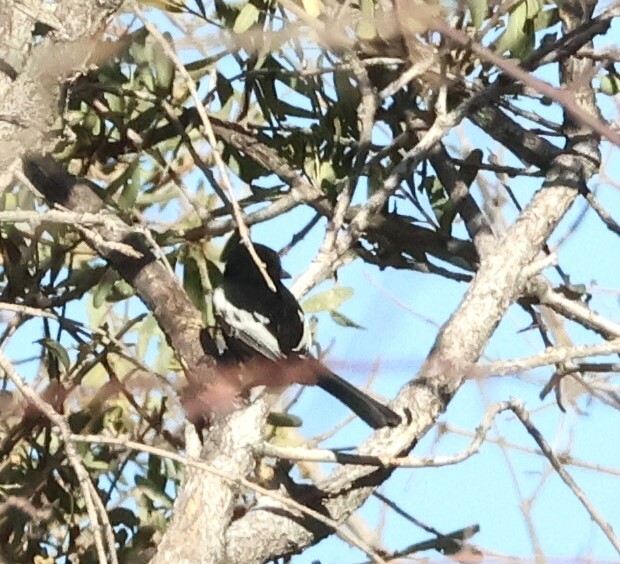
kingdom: Animalia
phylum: Chordata
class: Aves
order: Passeriformes
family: Paridae
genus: Parus
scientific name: Parus carpi
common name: Carp's tit
